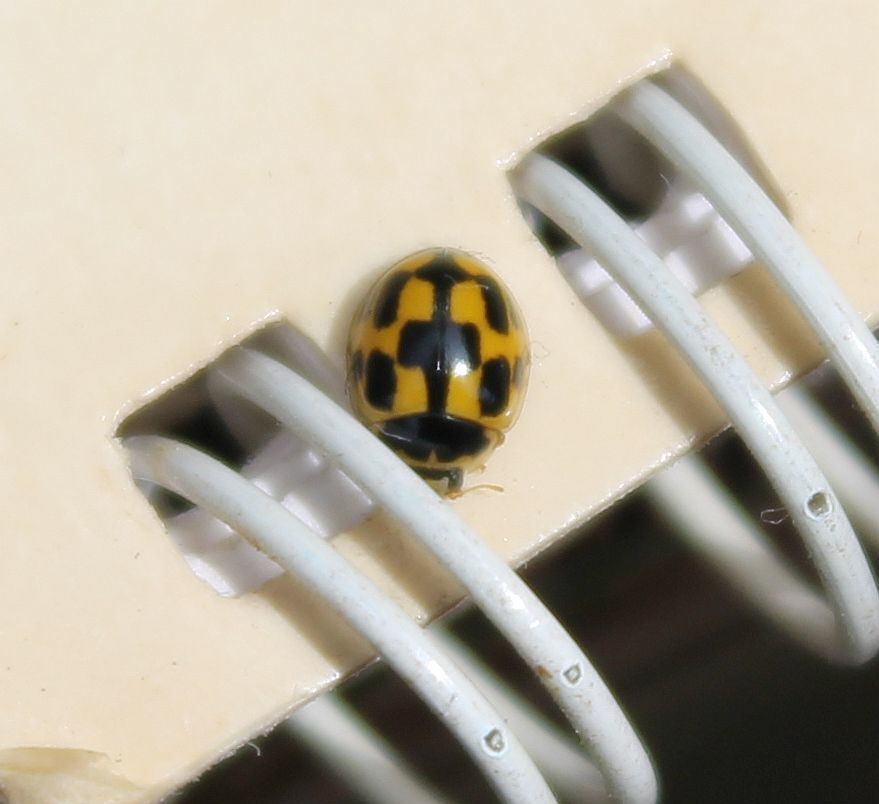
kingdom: Animalia
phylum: Arthropoda
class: Insecta
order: Coleoptera
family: Coccinellidae
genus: Propylaea
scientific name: Propylaea quatuordecimpunctata
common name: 14-spotted ladybird beetle
